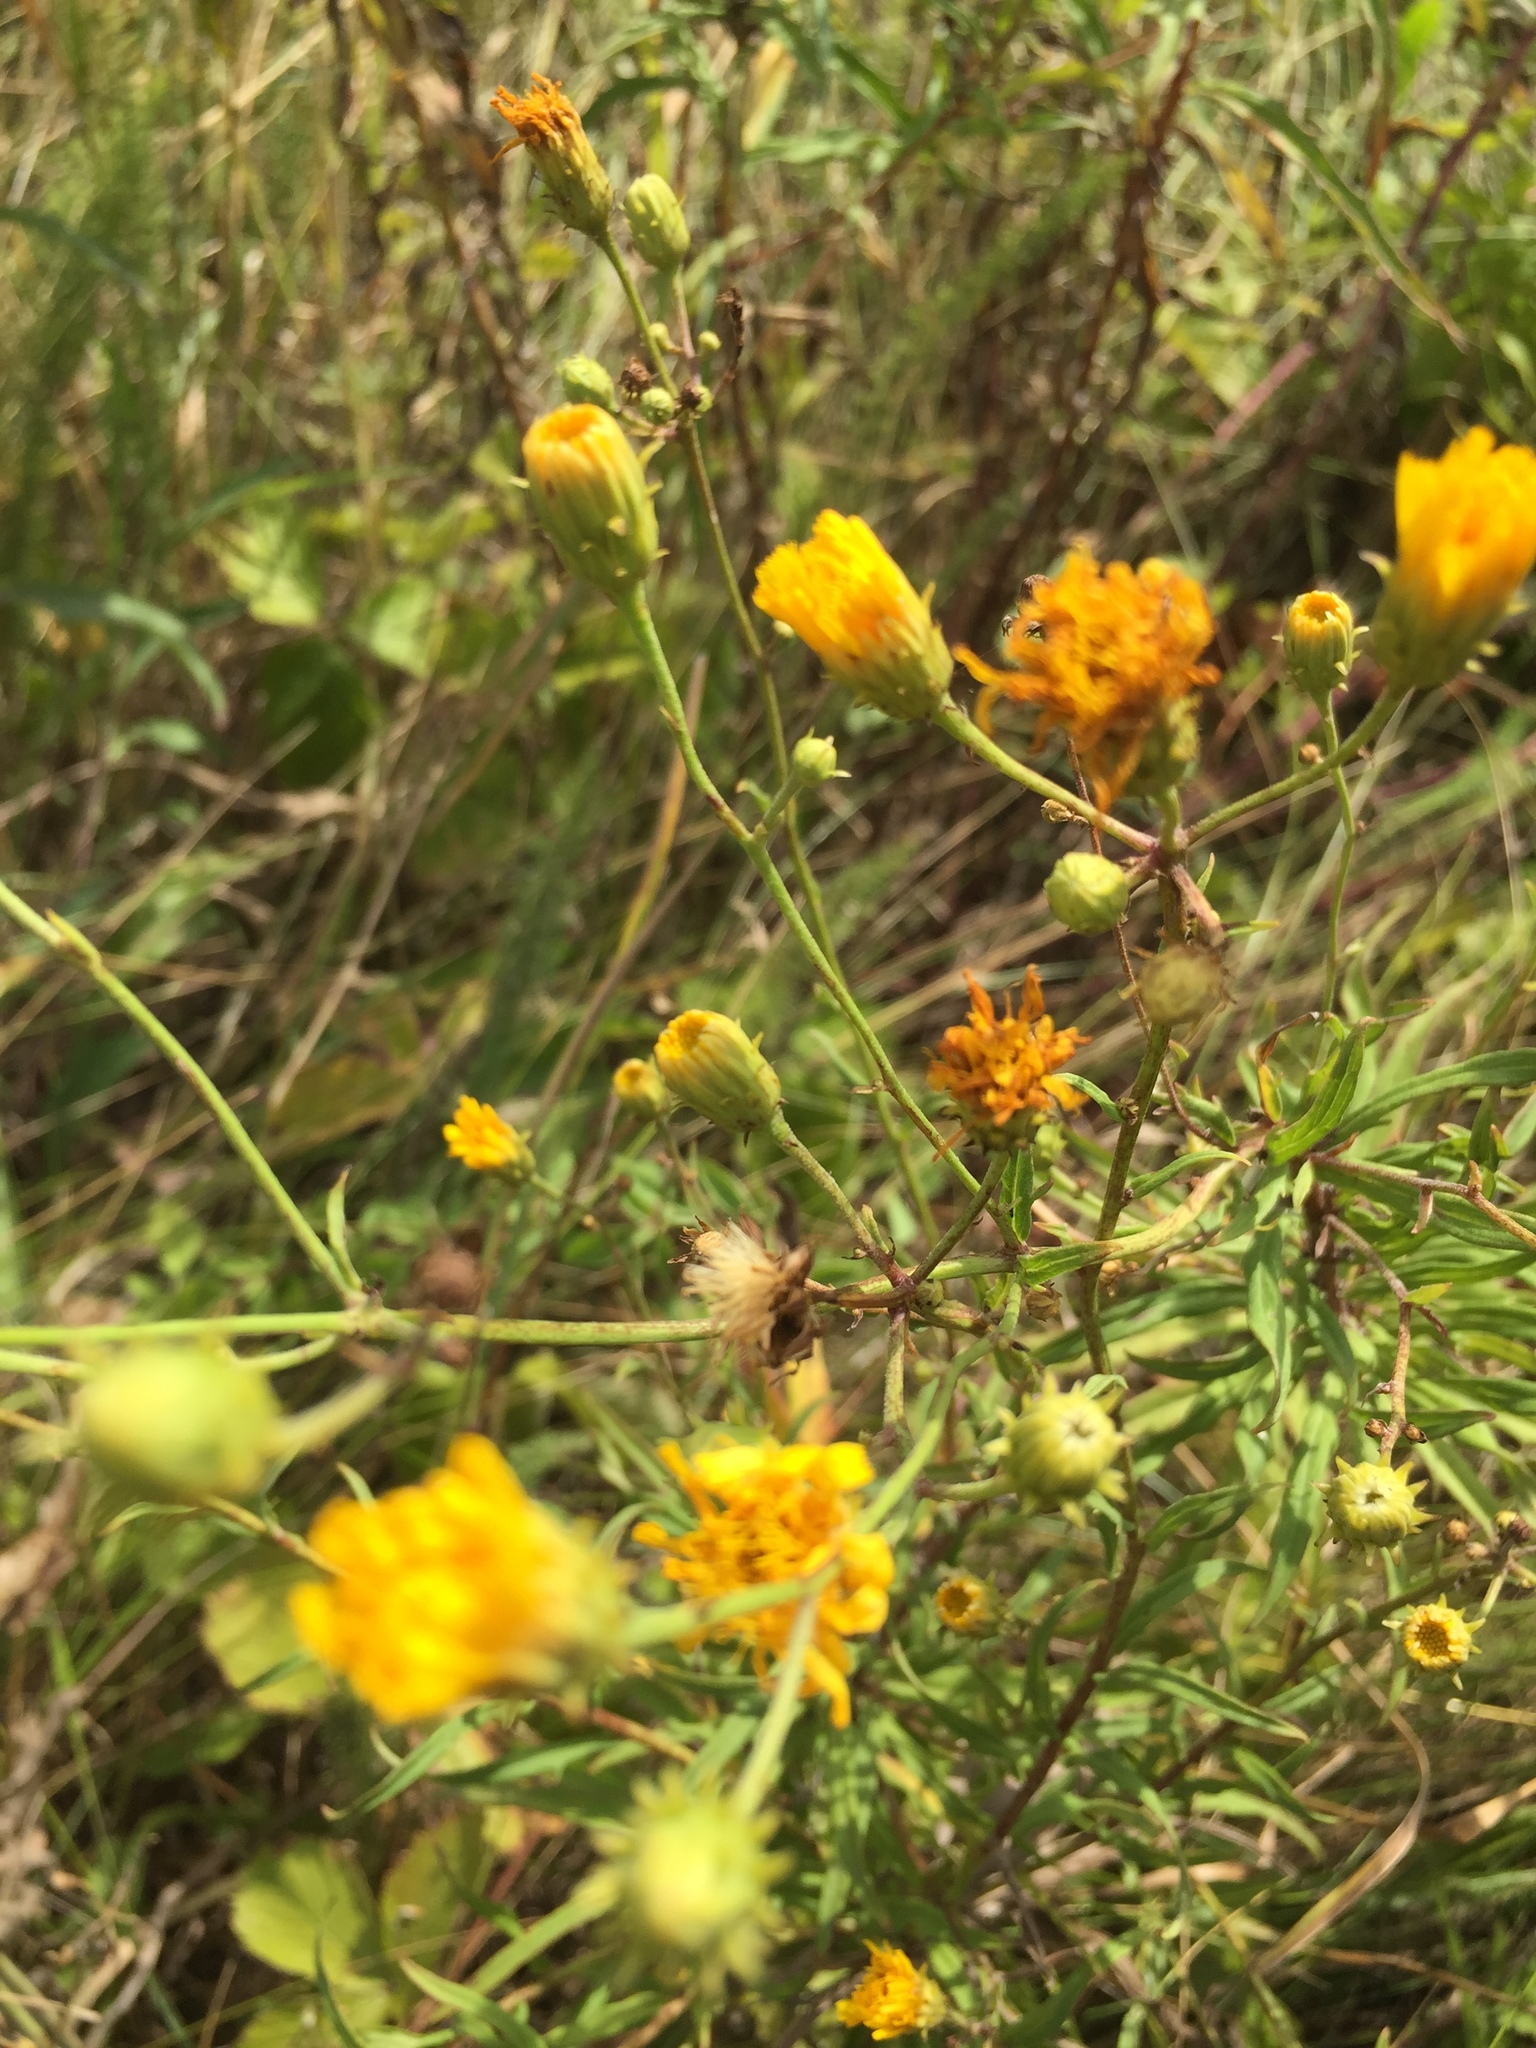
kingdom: Plantae
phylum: Tracheophyta
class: Magnoliopsida
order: Asterales
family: Asteraceae
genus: Hieracium
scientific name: Hieracium umbellatum
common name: Northern hawkweed
